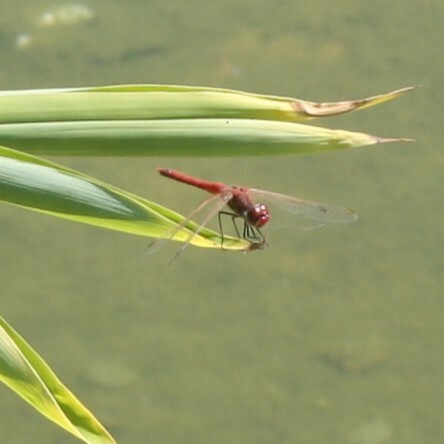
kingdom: Animalia
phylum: Arthropoda
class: Insecta
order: Odonata
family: Libellulidae
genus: Sympetrum
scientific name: Sympetrum fonscolombii
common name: Red-veined darter
